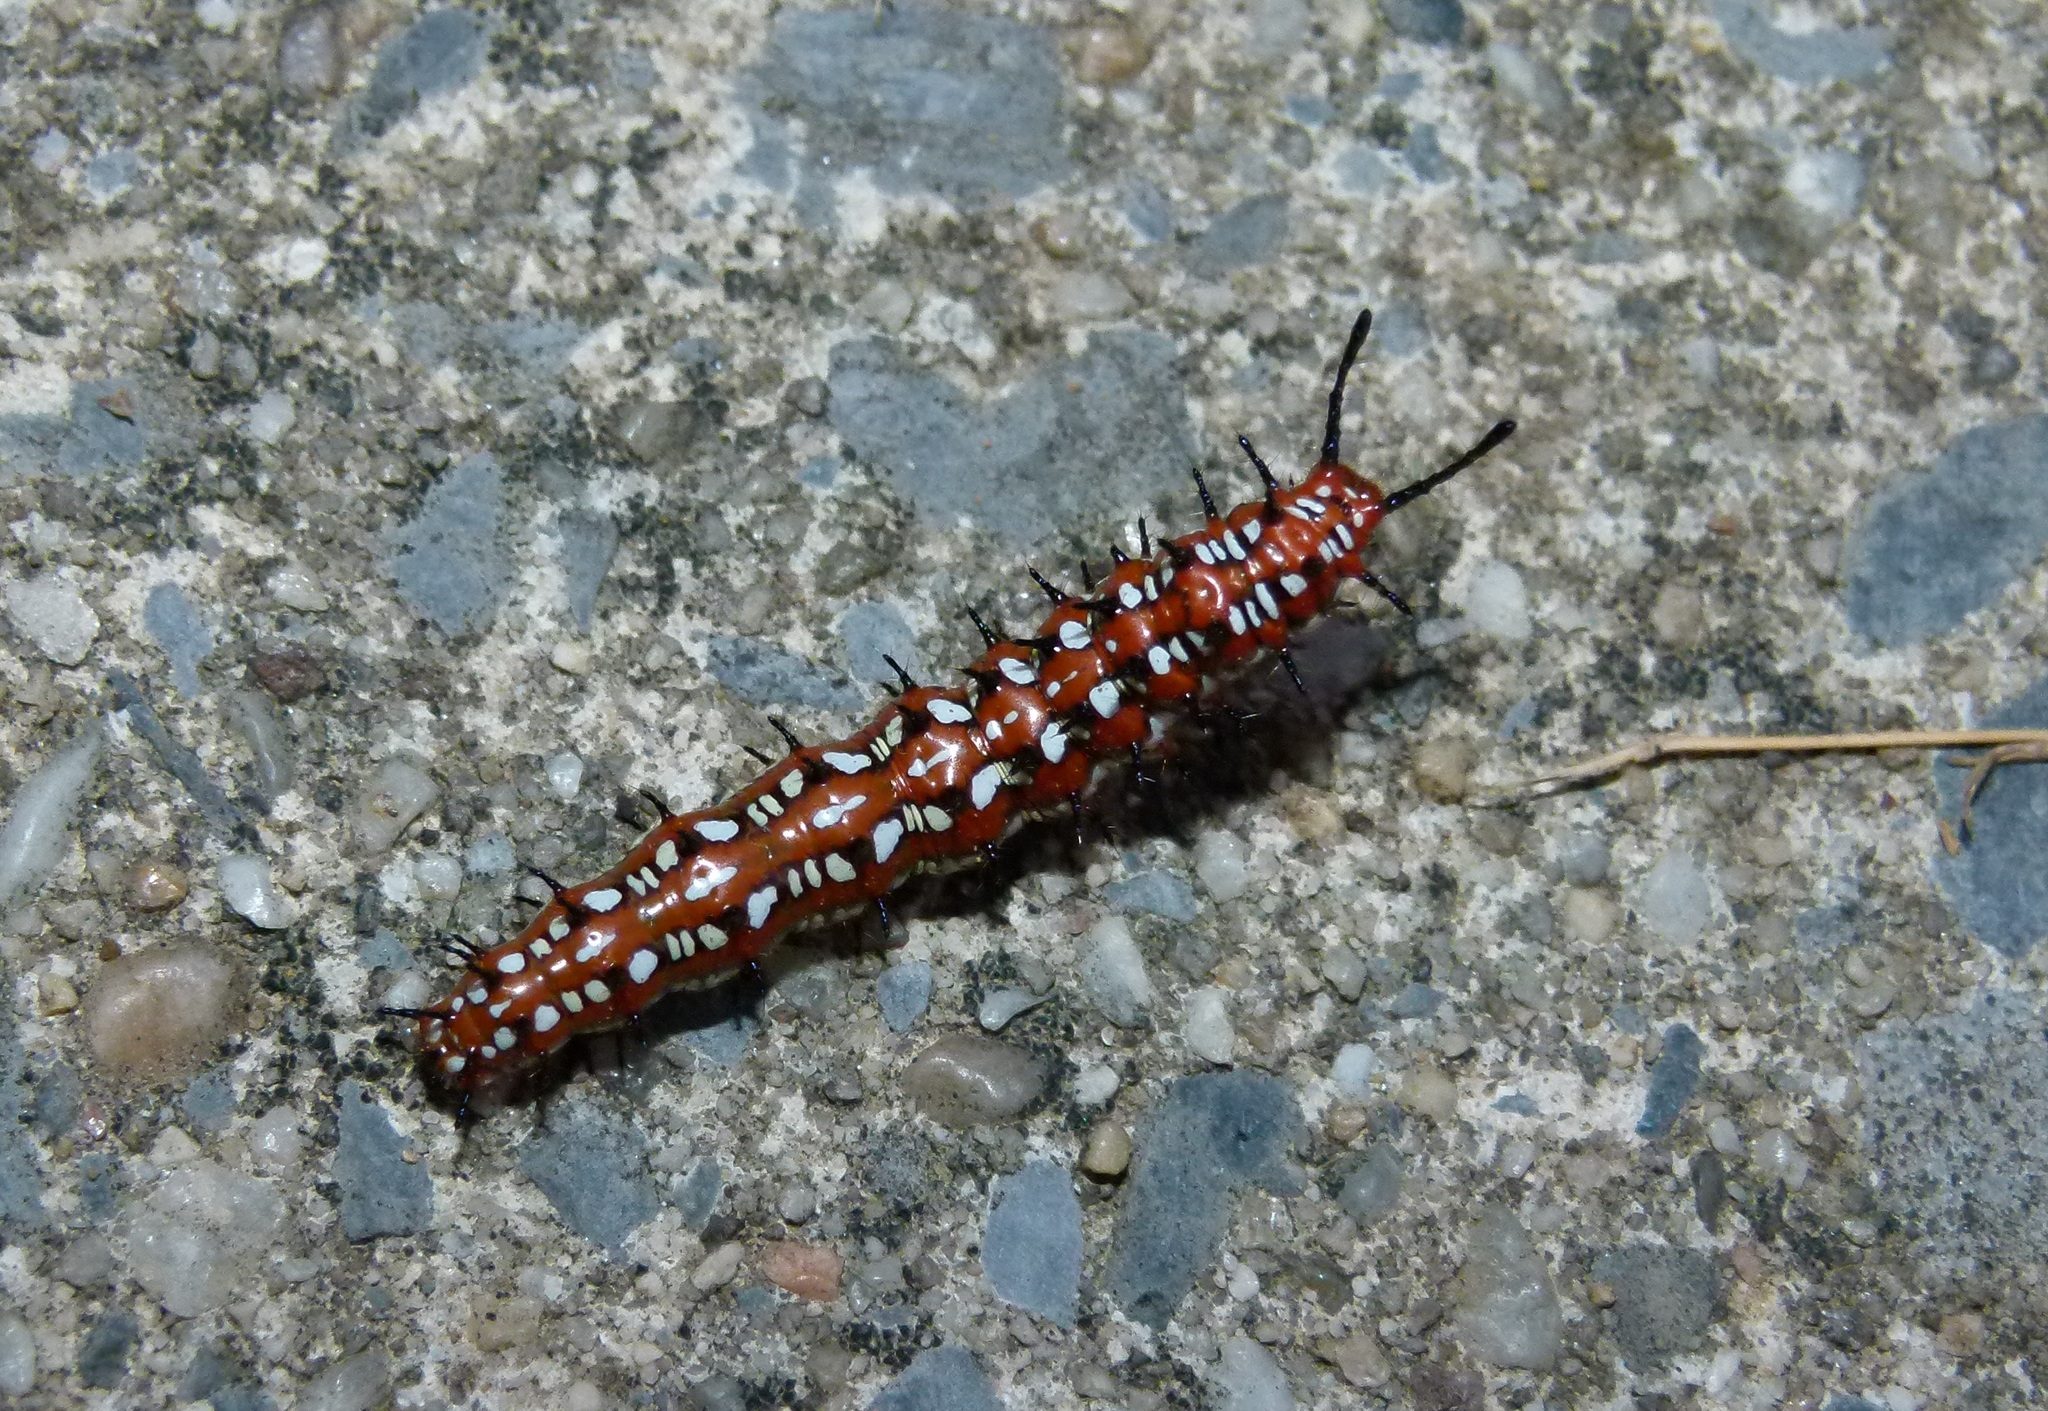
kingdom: Animalia
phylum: Arthropoda
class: Insecta
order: Lepidoptera
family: Nymphalidae
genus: Euptoieta
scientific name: Euptoieta claudia
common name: Variegated fritillary
